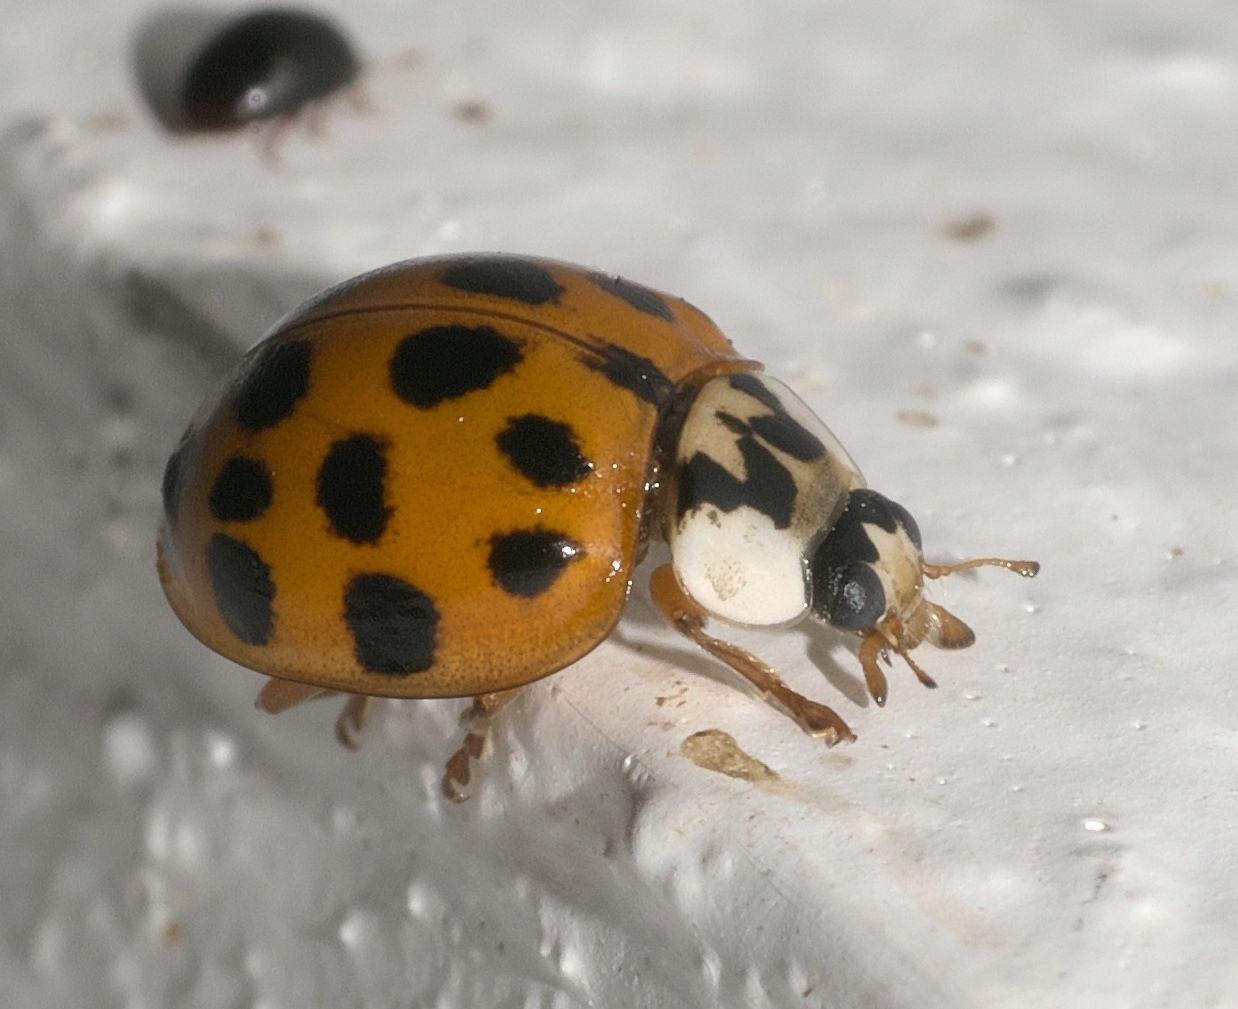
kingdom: Animalia
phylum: Arthropoda
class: Insecta
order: Coleoptera
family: Coccinellidae
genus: Harmonia
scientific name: Harmonia axyridis
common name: Harlequin ladybird
